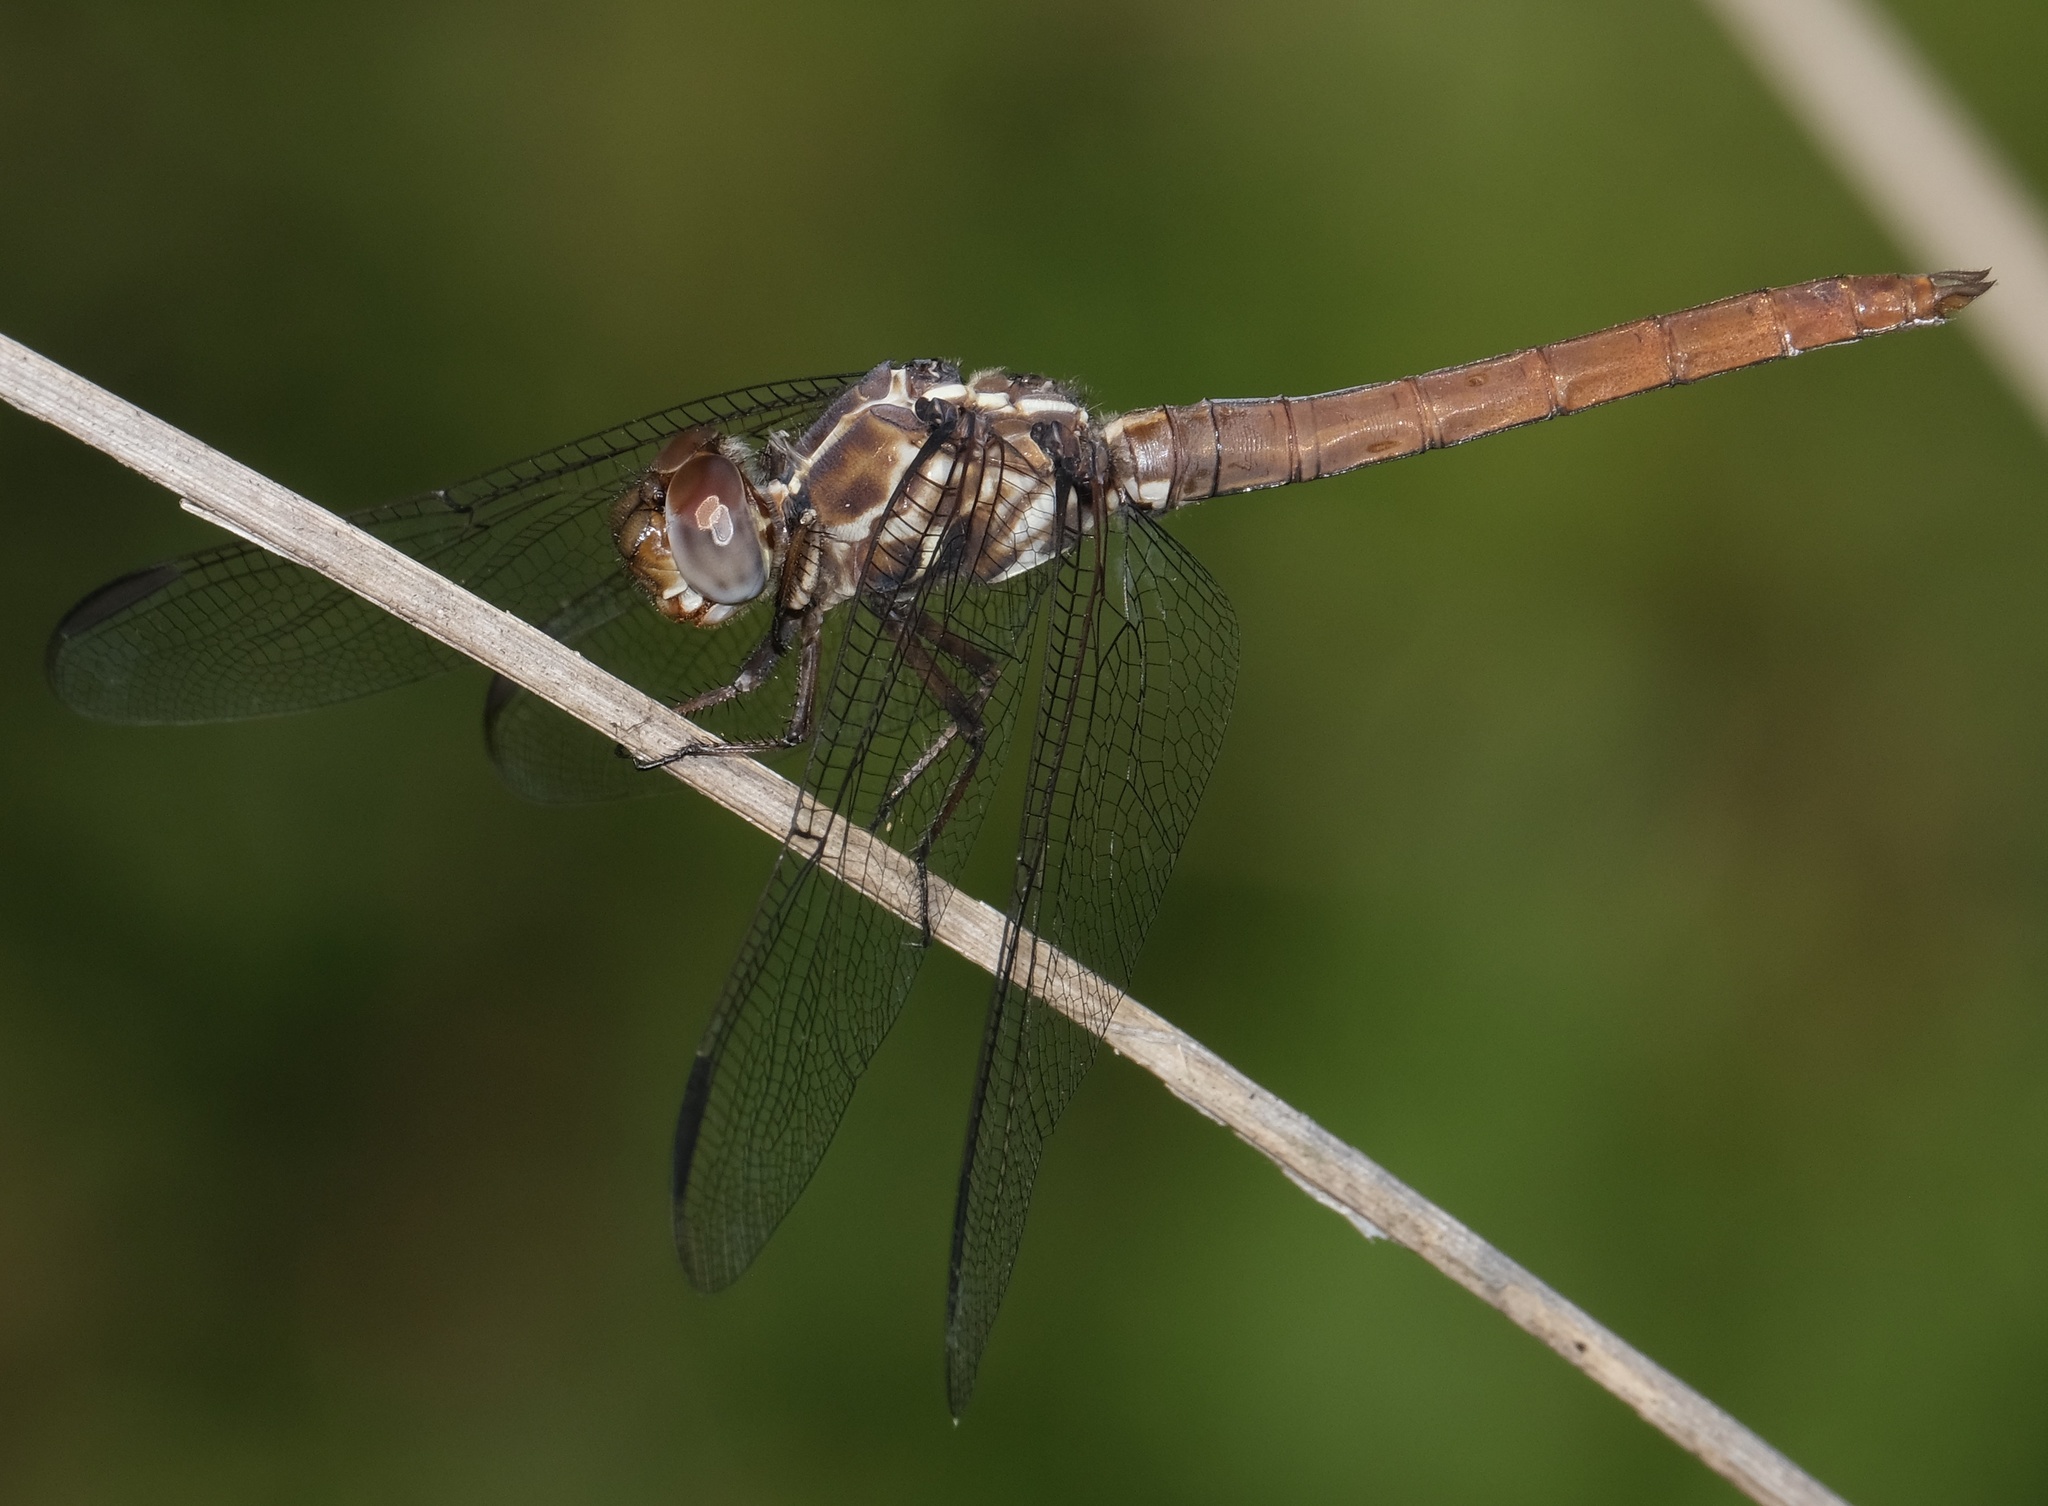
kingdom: Animalia
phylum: Arthropoda
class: Insecta
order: Odonata
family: Libellulidae
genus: Orthemis
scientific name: Orthemis ferruginea
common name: Roseate skimmer
